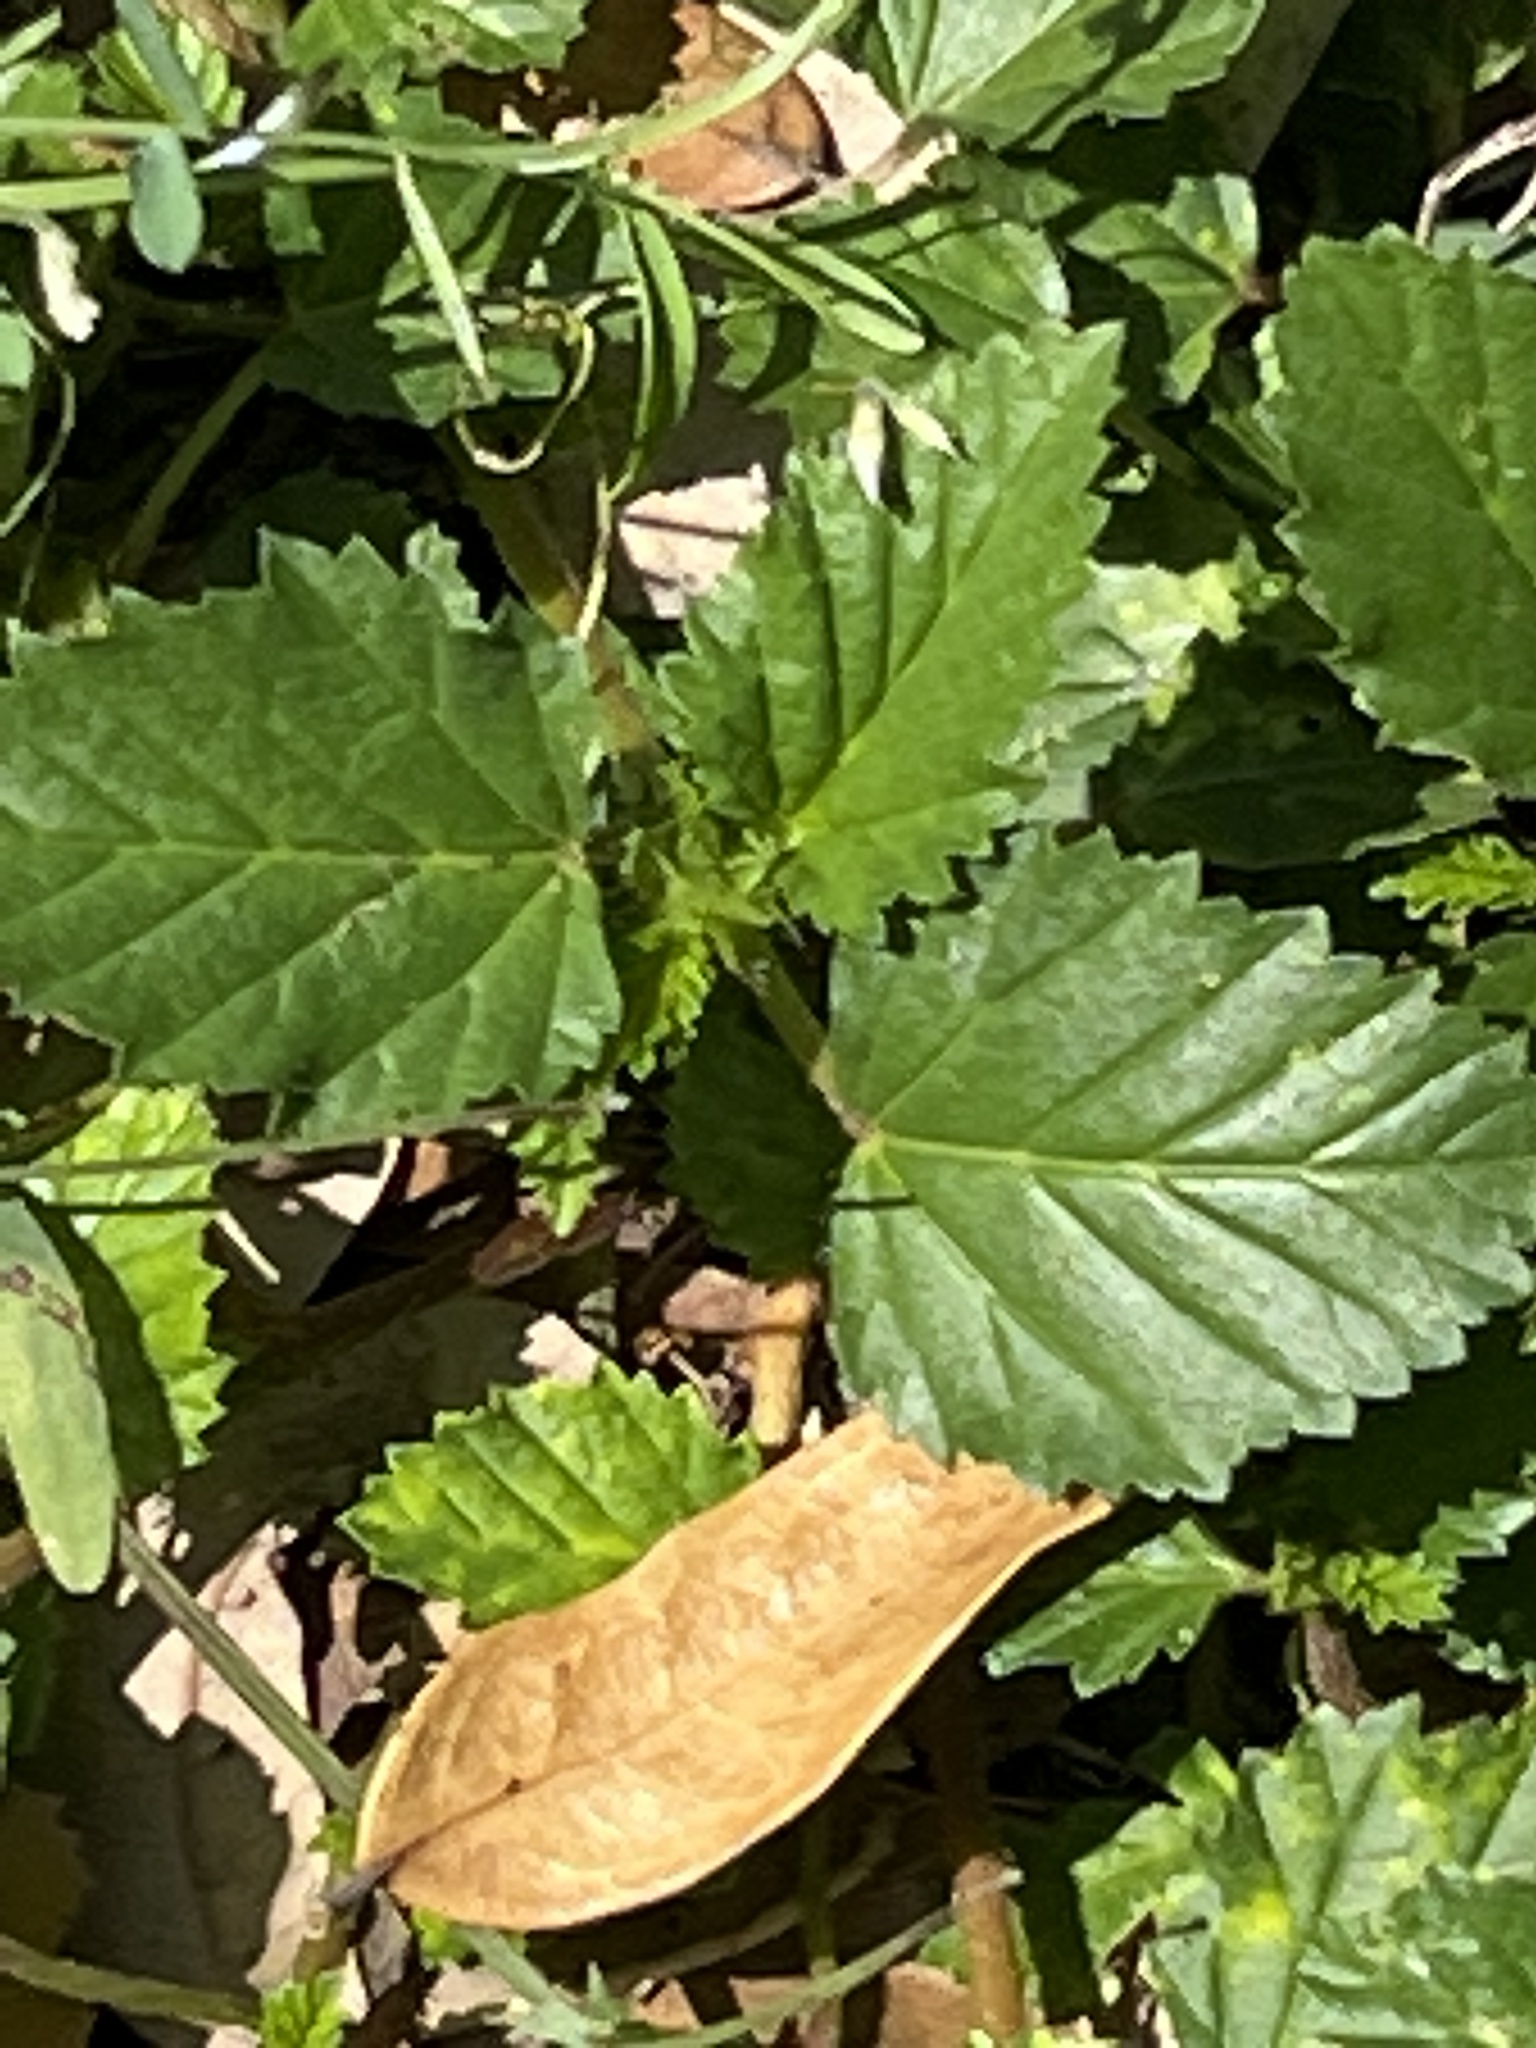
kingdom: Plantae
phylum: Tracheophyta
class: Magnoliopsida
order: Malvales
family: Malvaceae
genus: Malvastrum
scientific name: Malvastrum coromandelianum
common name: Threelobe false mallow
